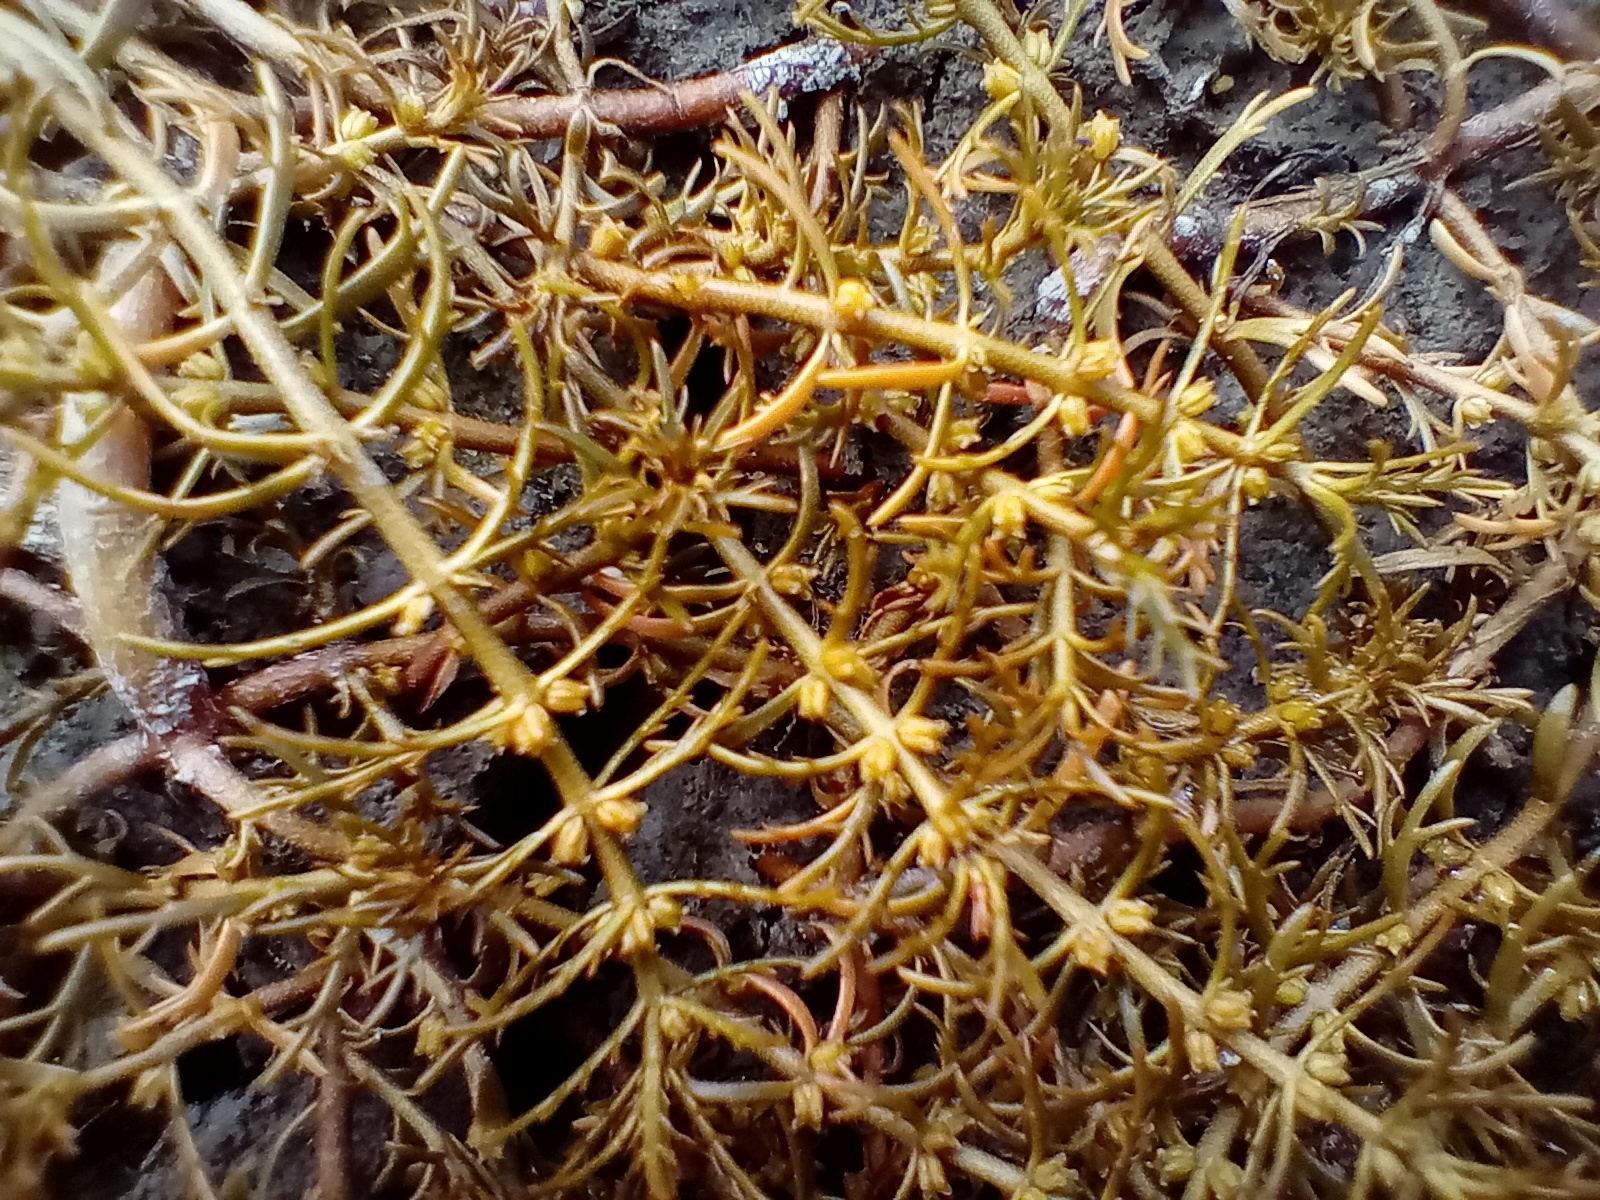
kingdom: Plantae
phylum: Tracheophyta
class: Magnoliopsida
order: Saxifragales
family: Haloragaceae
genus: Myriophyllum
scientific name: Myriophyllum propinquum
